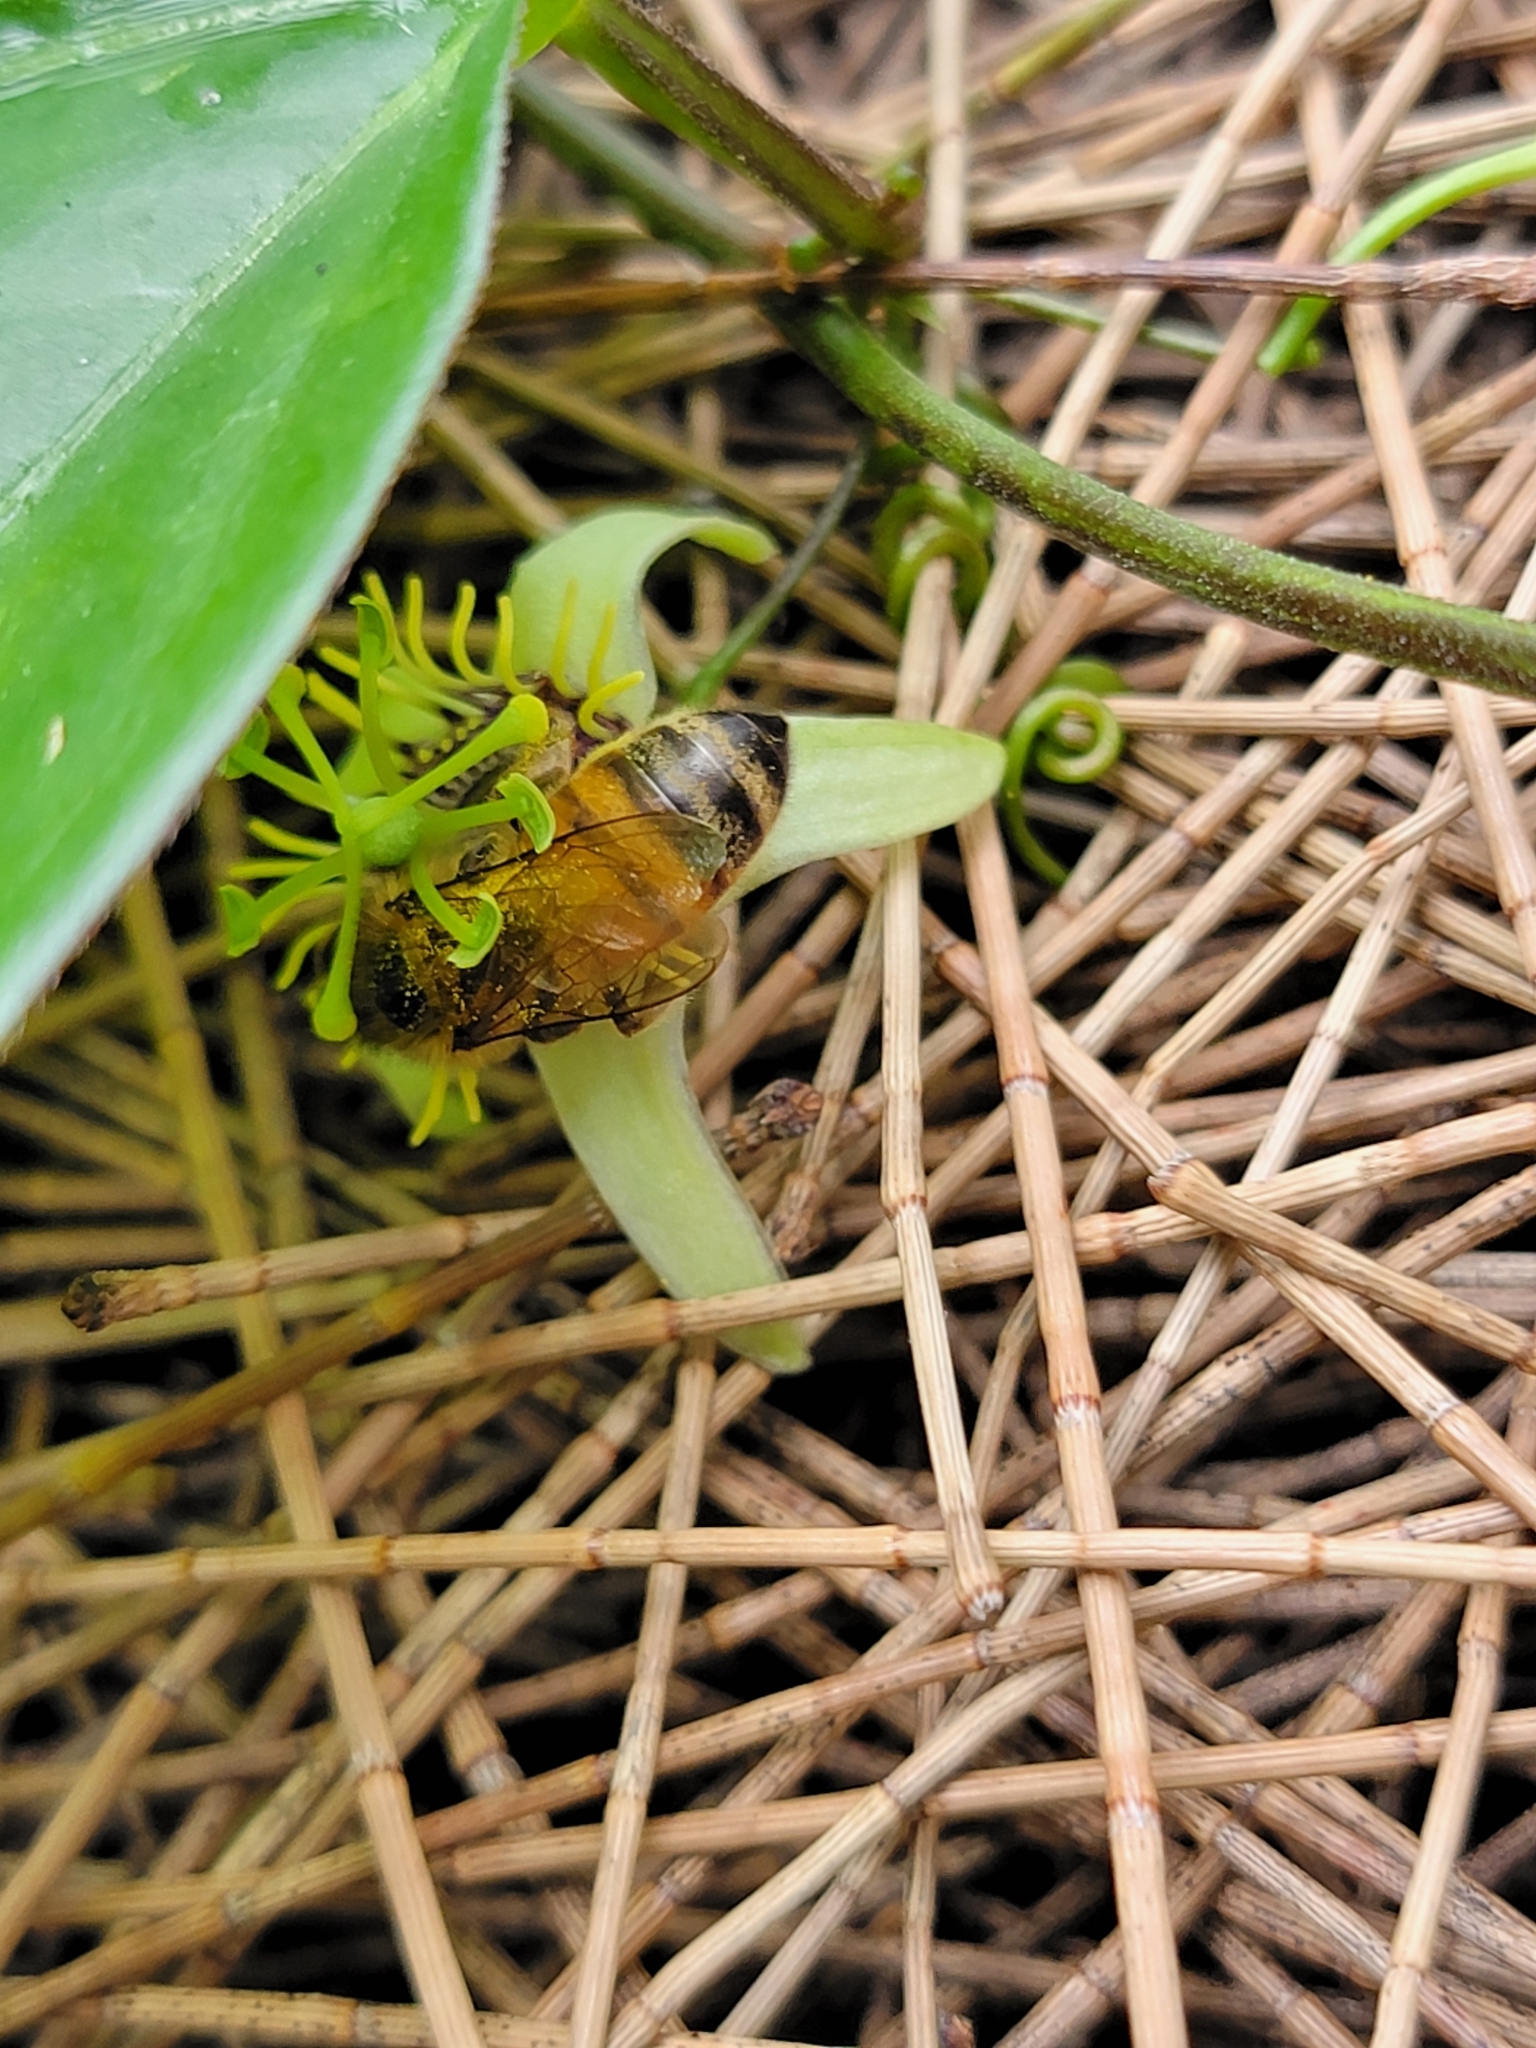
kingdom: Animalia
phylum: Arthropoda
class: Insecta
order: Hymenoptera
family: Apidae
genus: Apis
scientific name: Apis mellifera
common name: Honey bee
